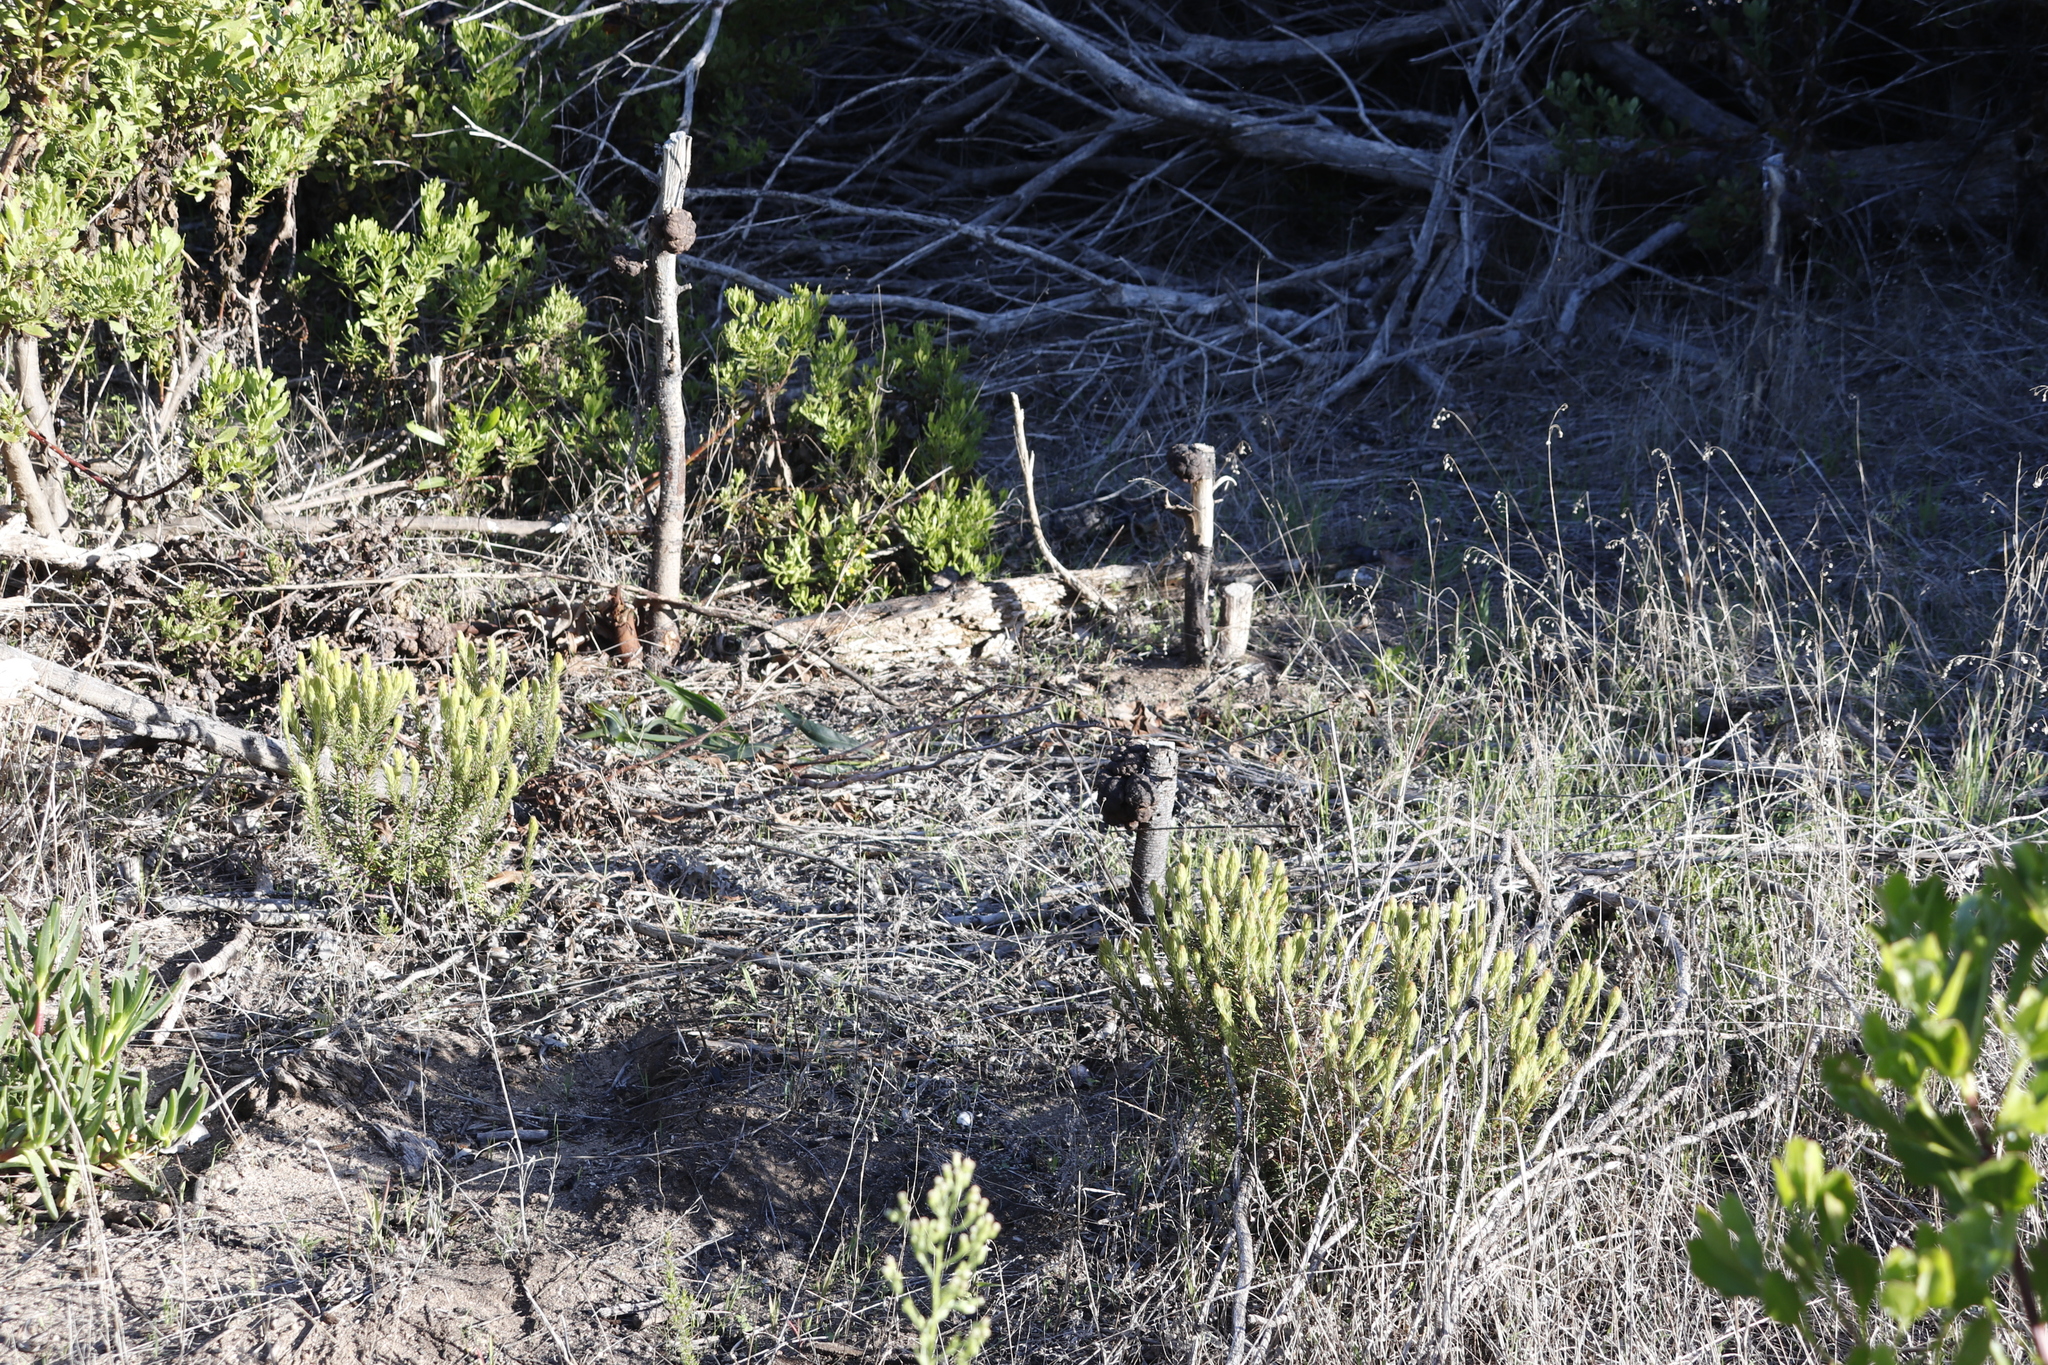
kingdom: Plantae
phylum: Tracheophyta
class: Magnoliopsida
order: Fabales
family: Fabaceae
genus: Acacia
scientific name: Acacia saligna
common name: Orange wattle
